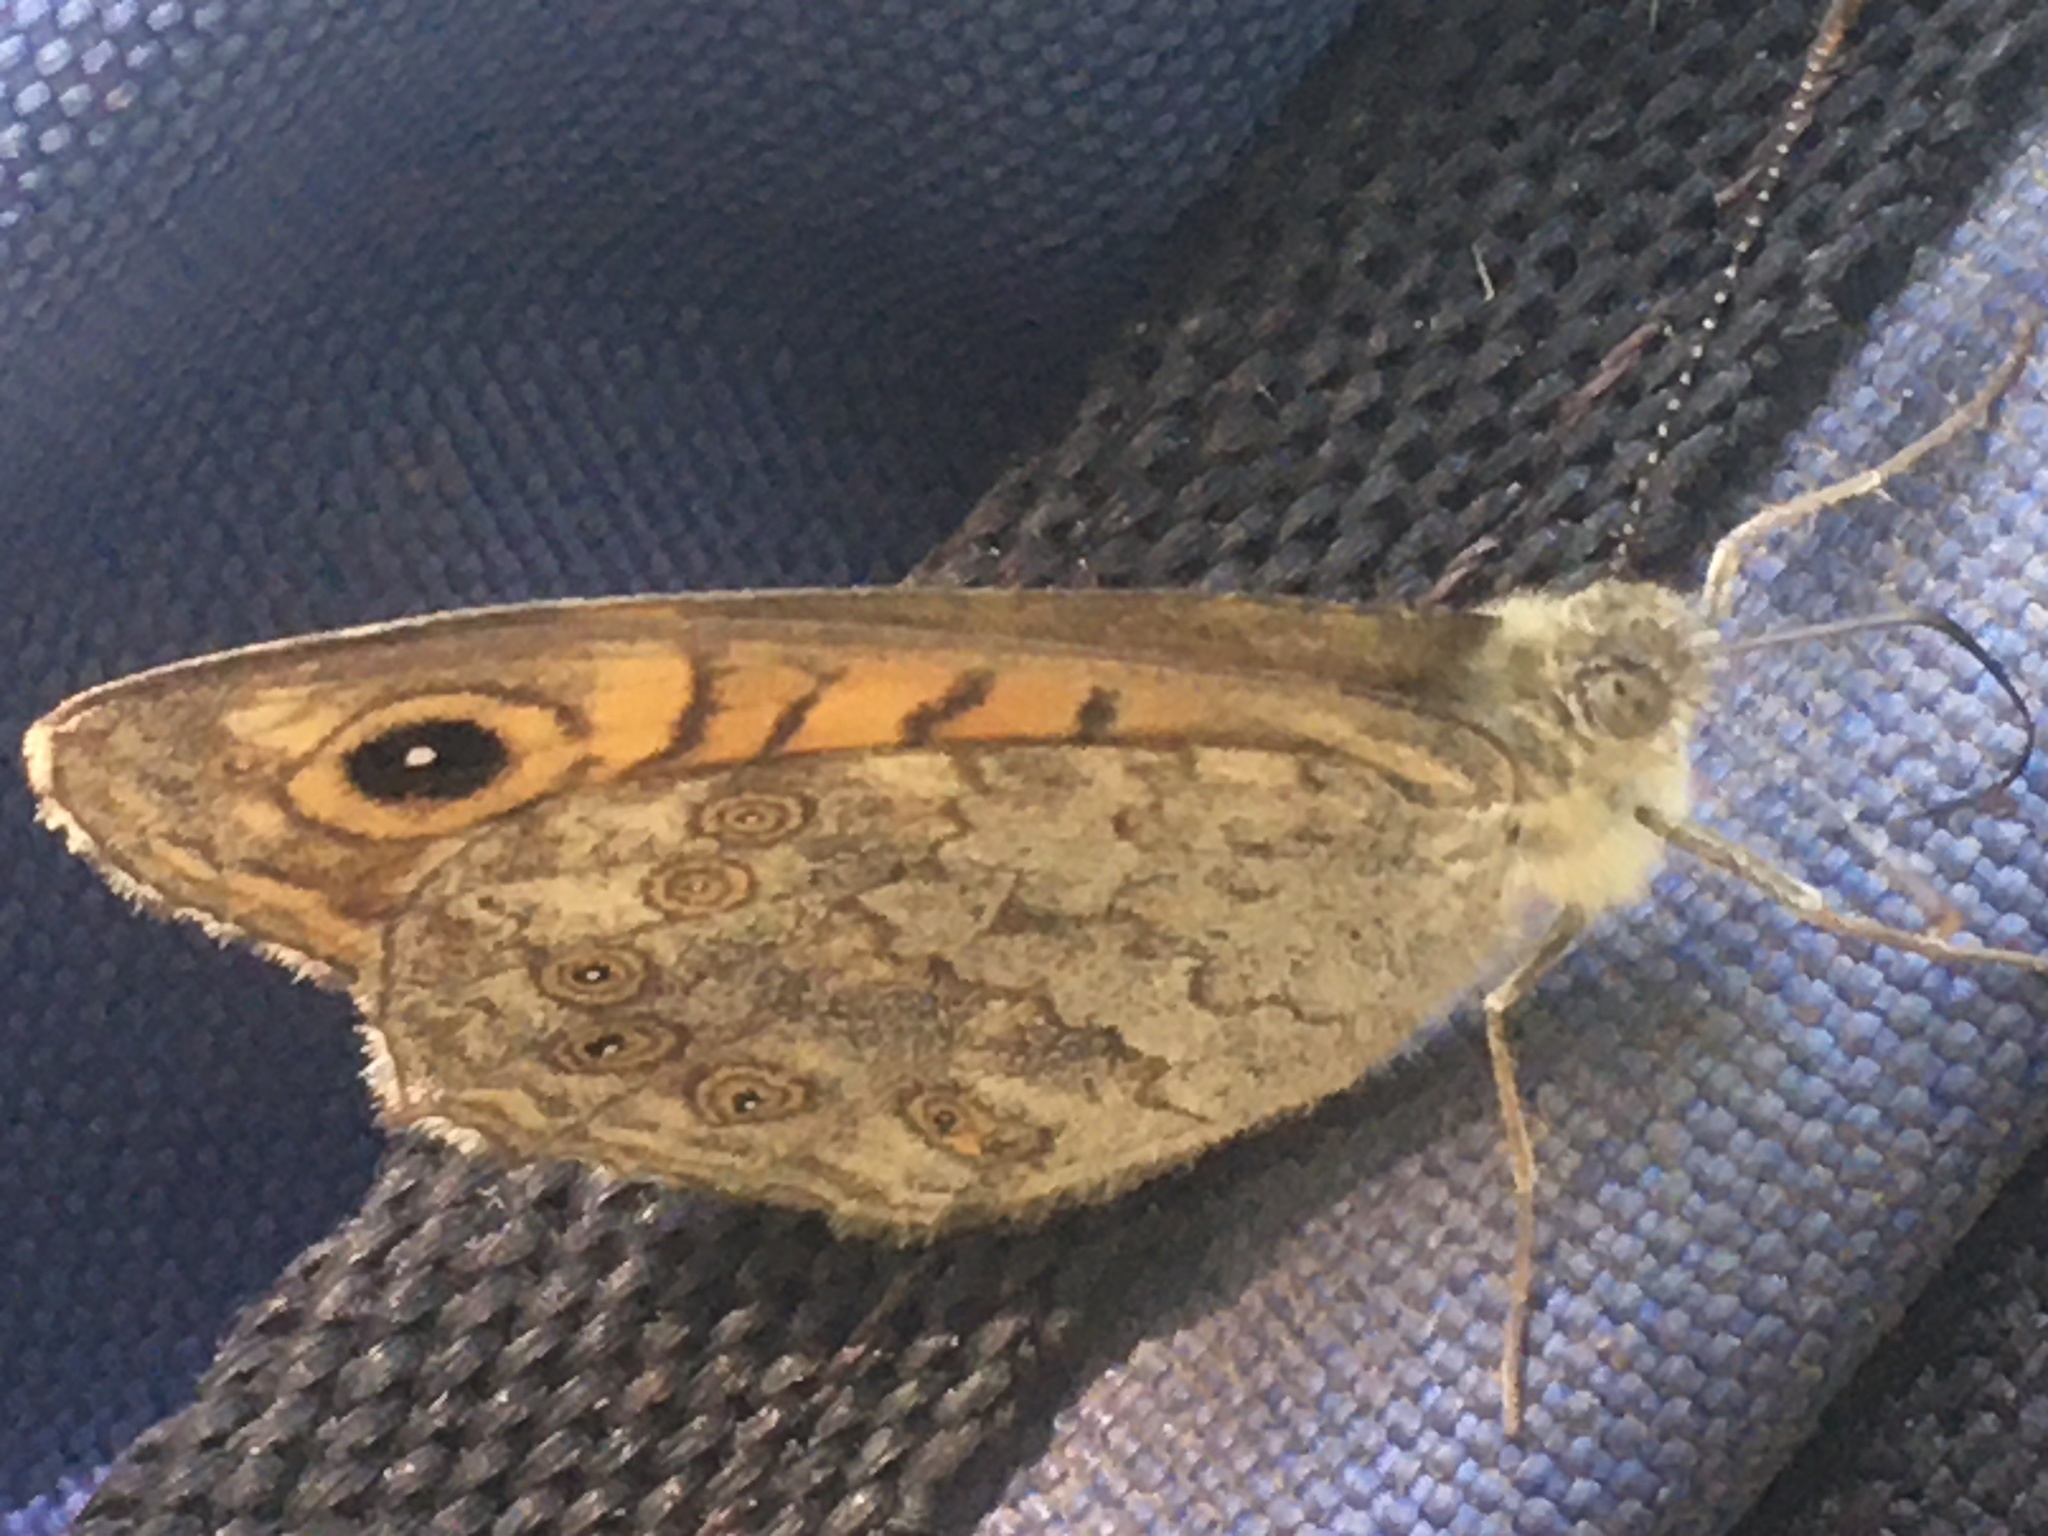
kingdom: Animalia
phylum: Arthropoda
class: Insecta
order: Lepidoptera
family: Nymphalidae
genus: Pararge
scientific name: Pararge Lasiommata megera
